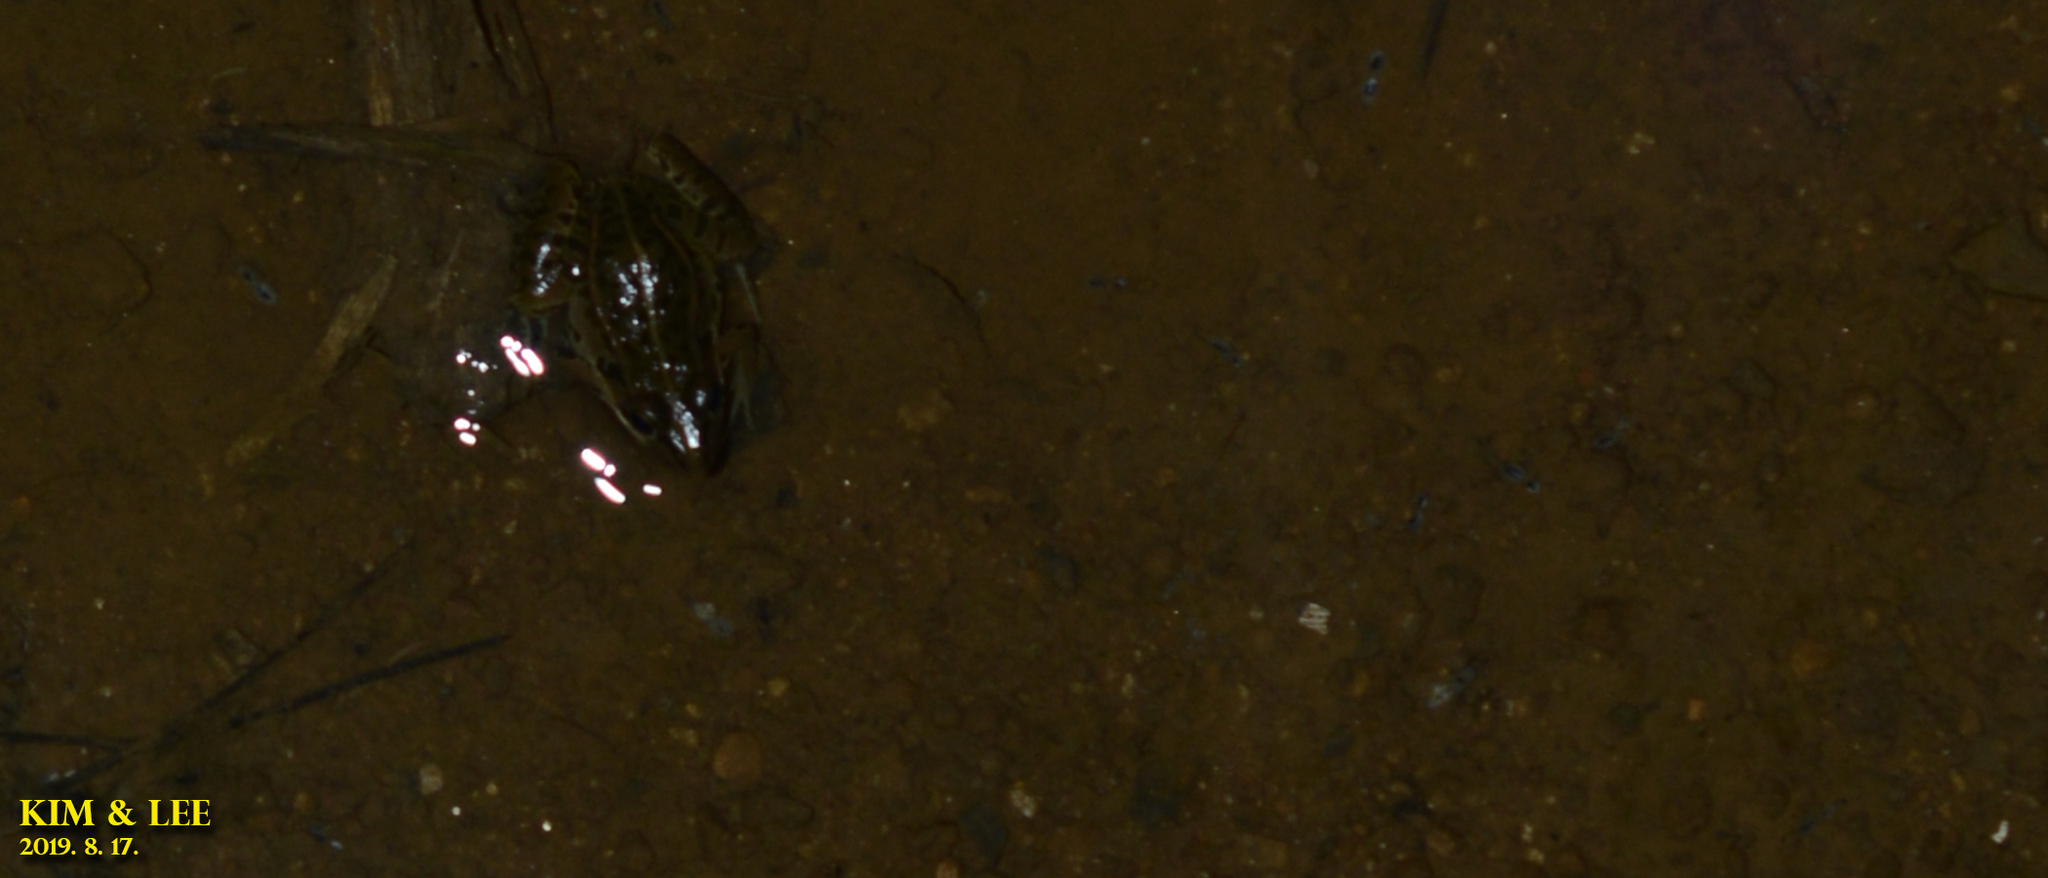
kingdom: Animalia
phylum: Chordata
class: Amphibia
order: Anura
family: Ranidae
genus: Pelophylax
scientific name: Pelophylax nigromaculatus
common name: Black-spotted pond frog
